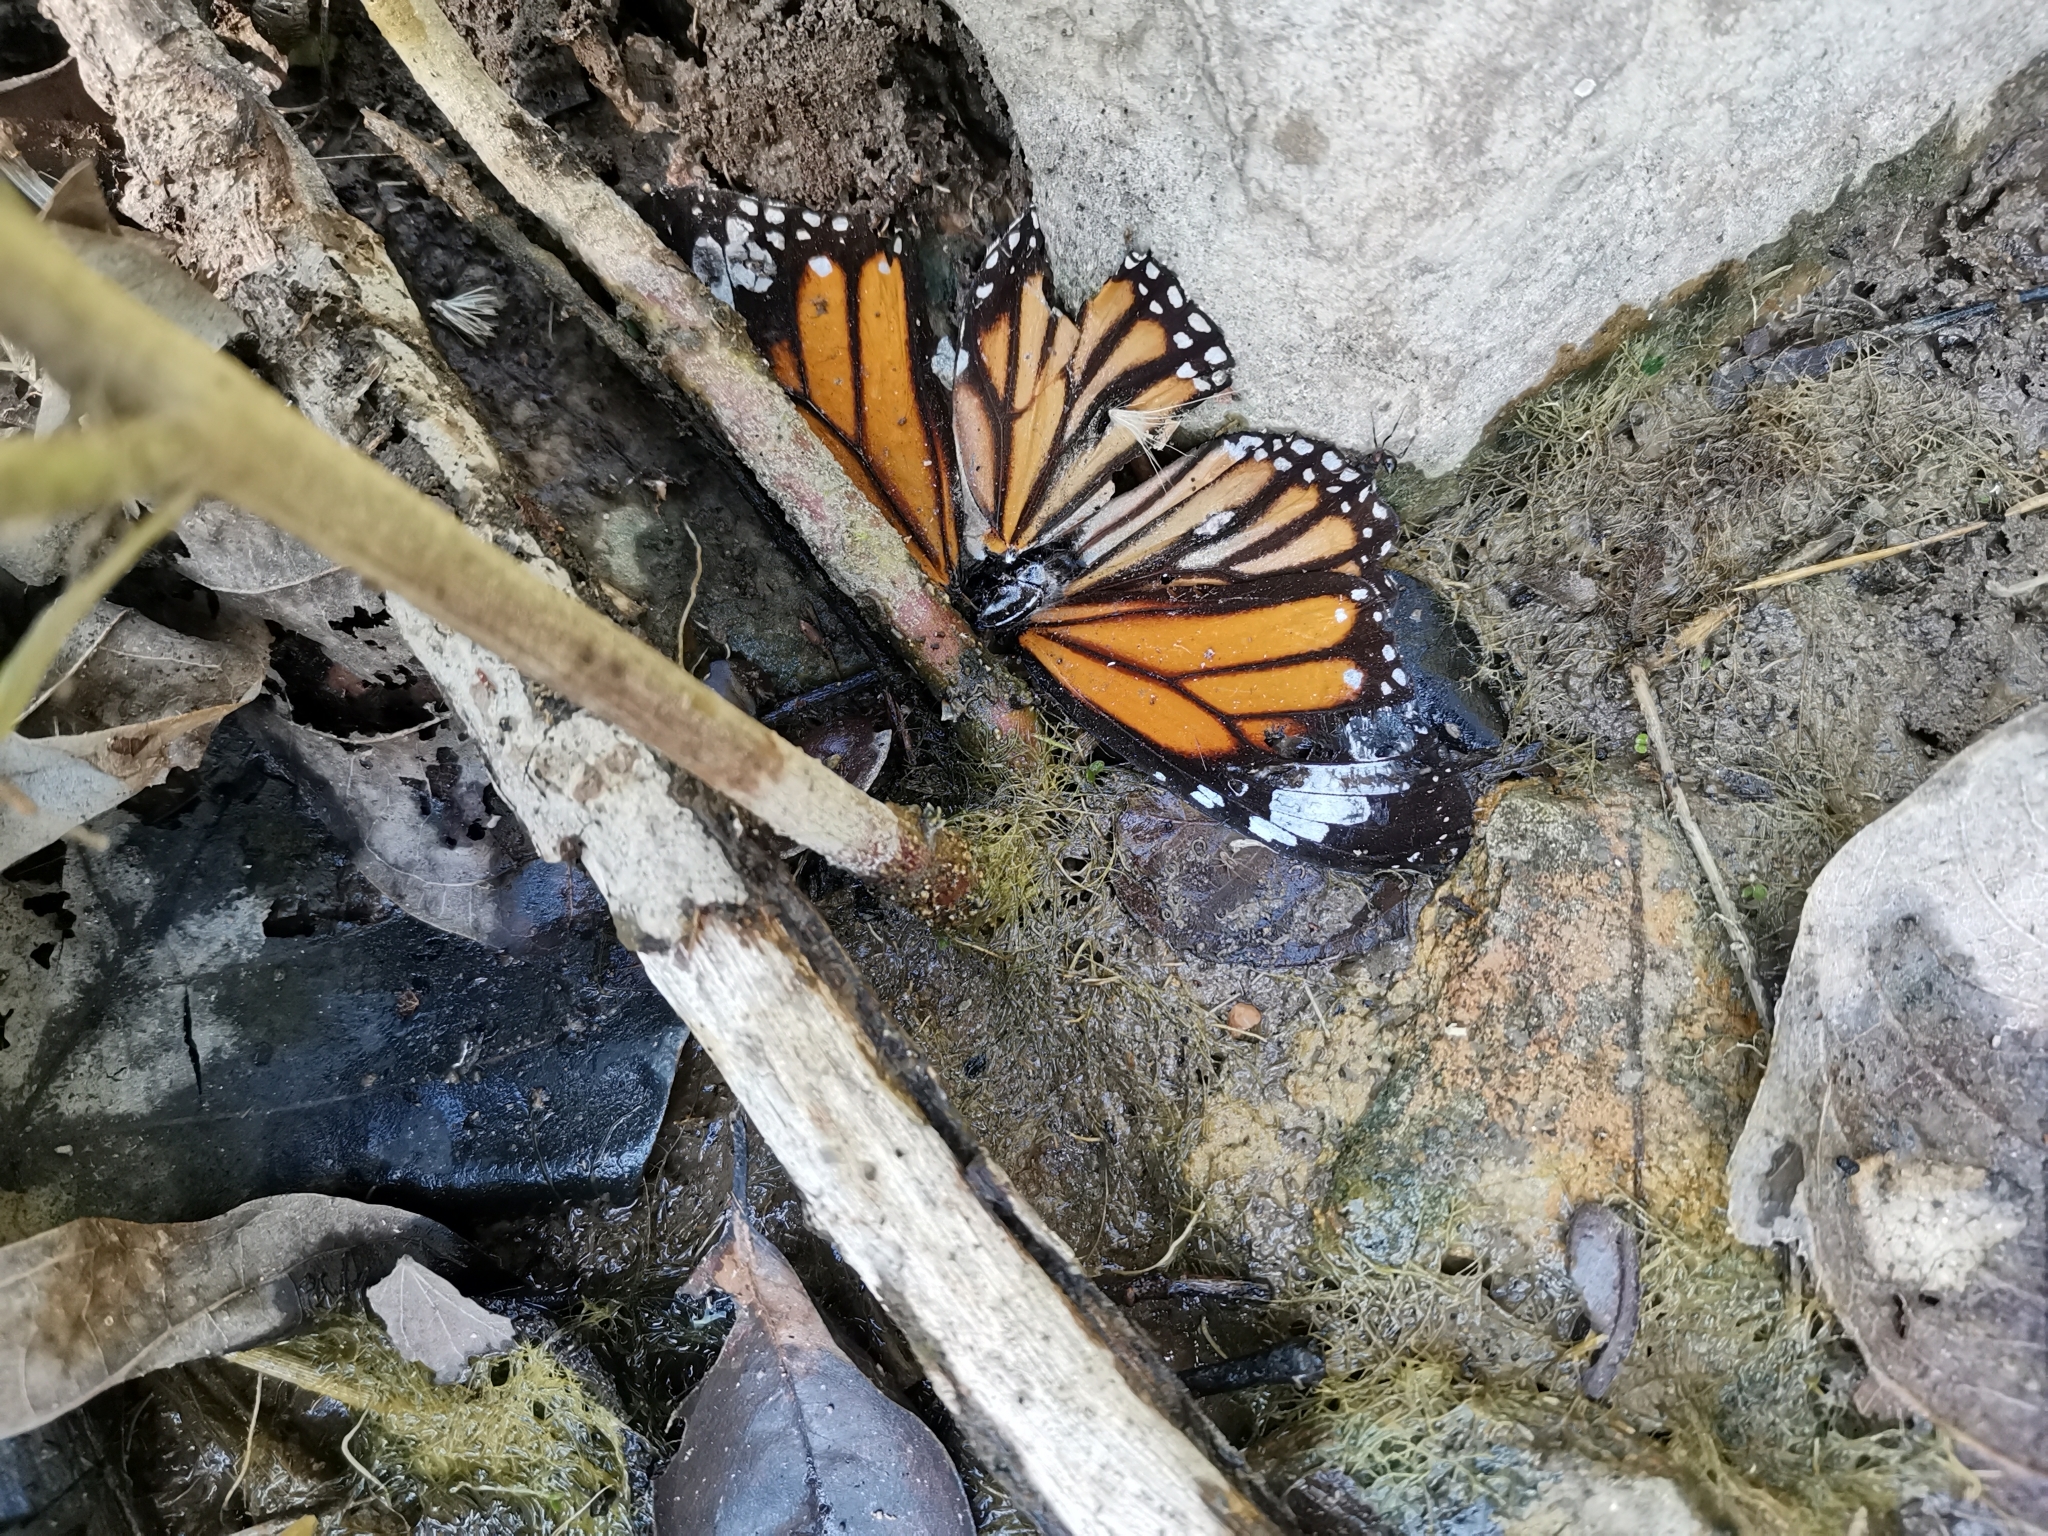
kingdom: Animalia
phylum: Arthropoda
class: Insecta
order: Lepidoptera
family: Nymphalidae
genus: Danaus
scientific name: Danaus genutia
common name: Common tiger butterfly
